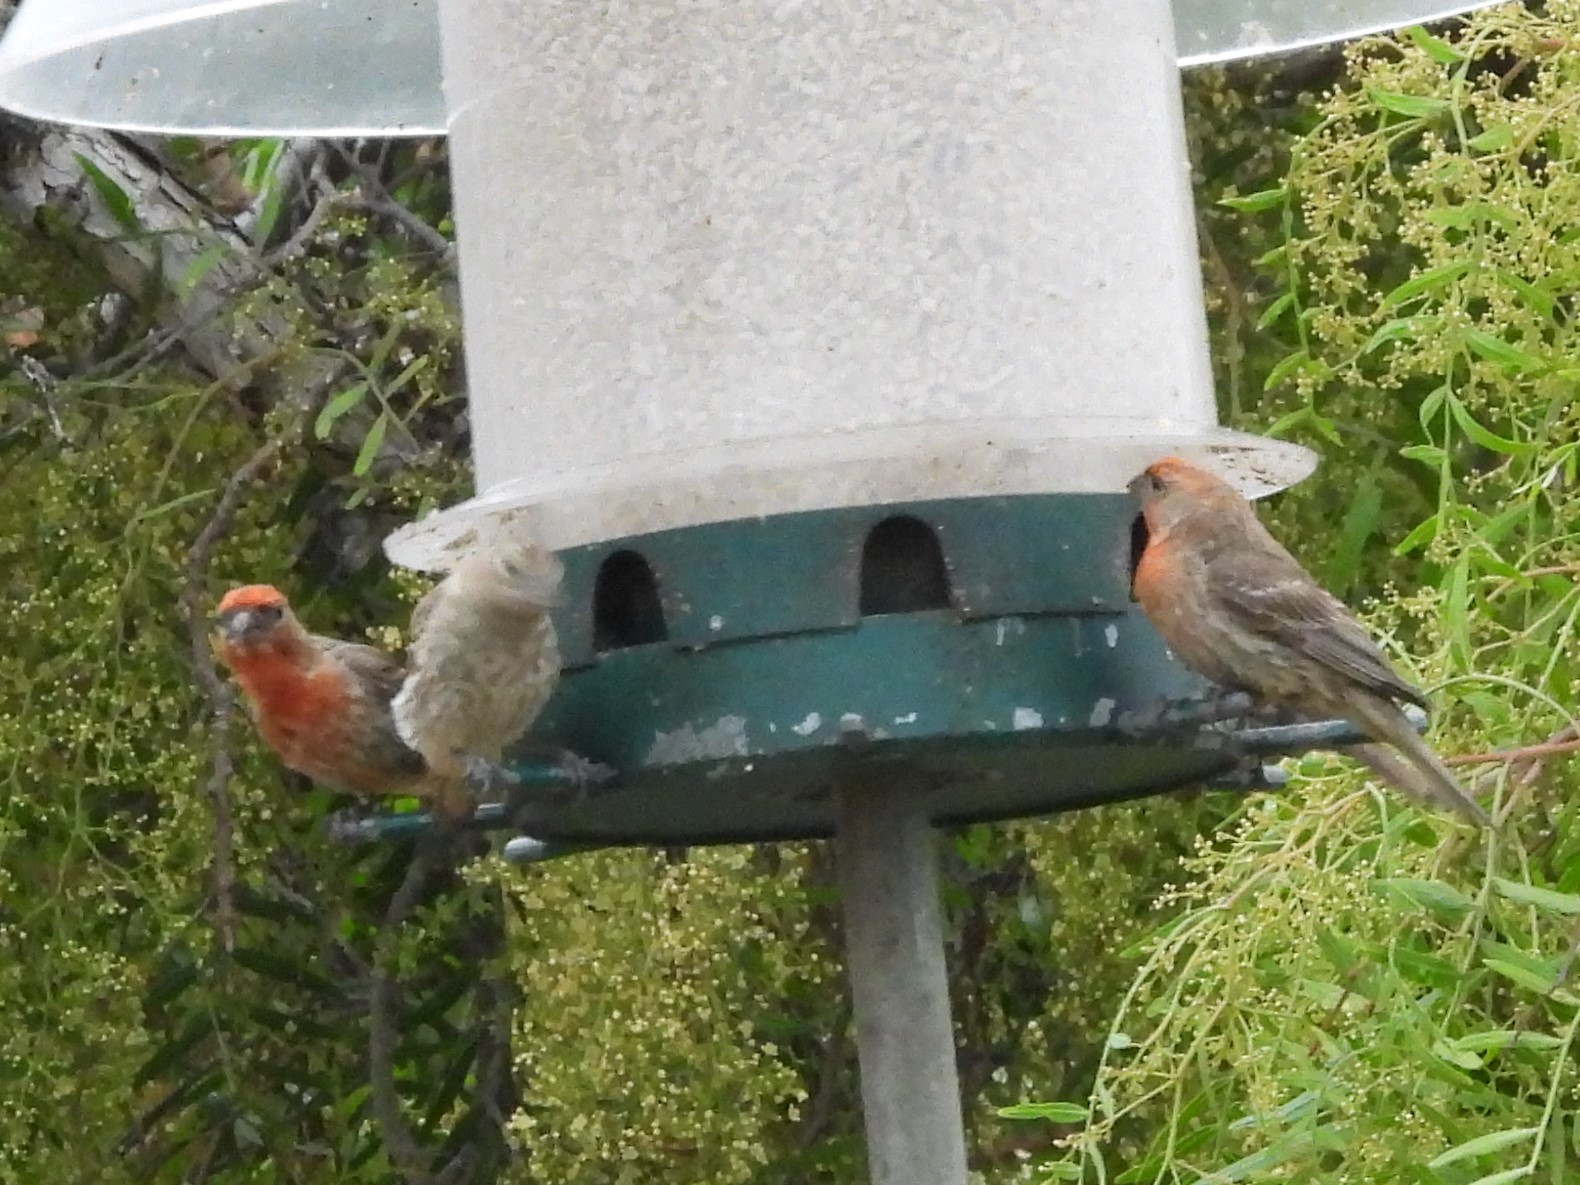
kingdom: Animalia
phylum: Chordata
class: Aves
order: Passeriformes
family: Fringillidae
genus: Haemorhous
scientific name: Haemorhous mexicanus
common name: House finch
